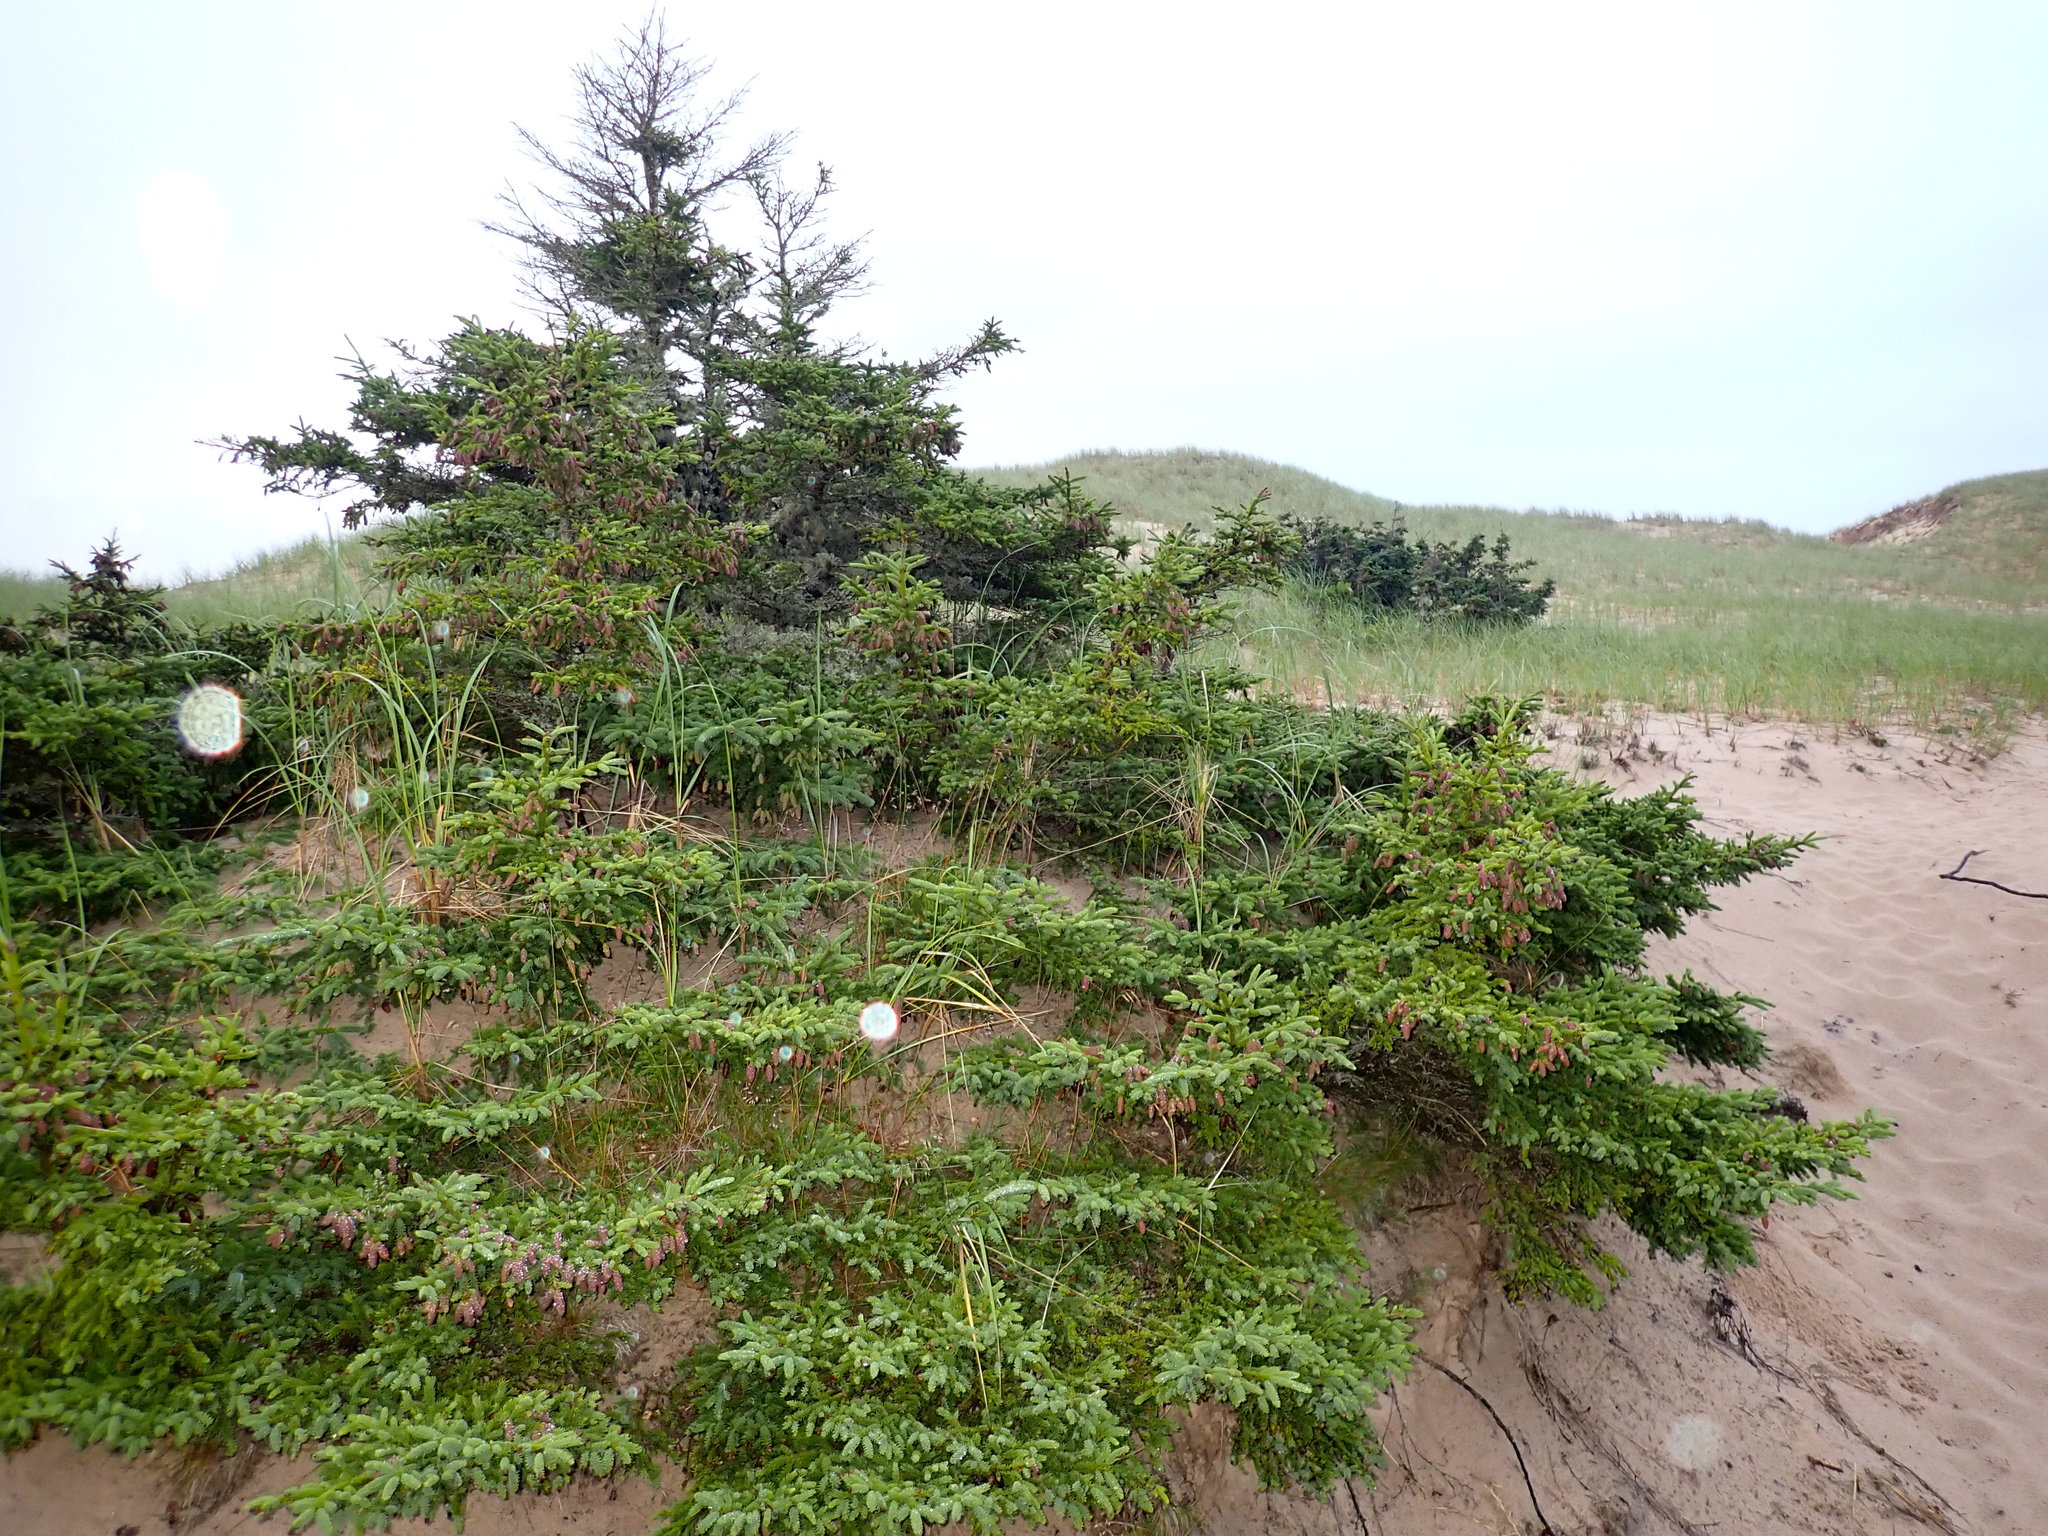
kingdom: Plantae
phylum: Tracheophyta
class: Pinopsida
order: Pinales
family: Pinaceae
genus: Picea
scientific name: Picea glauca
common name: White spruce
